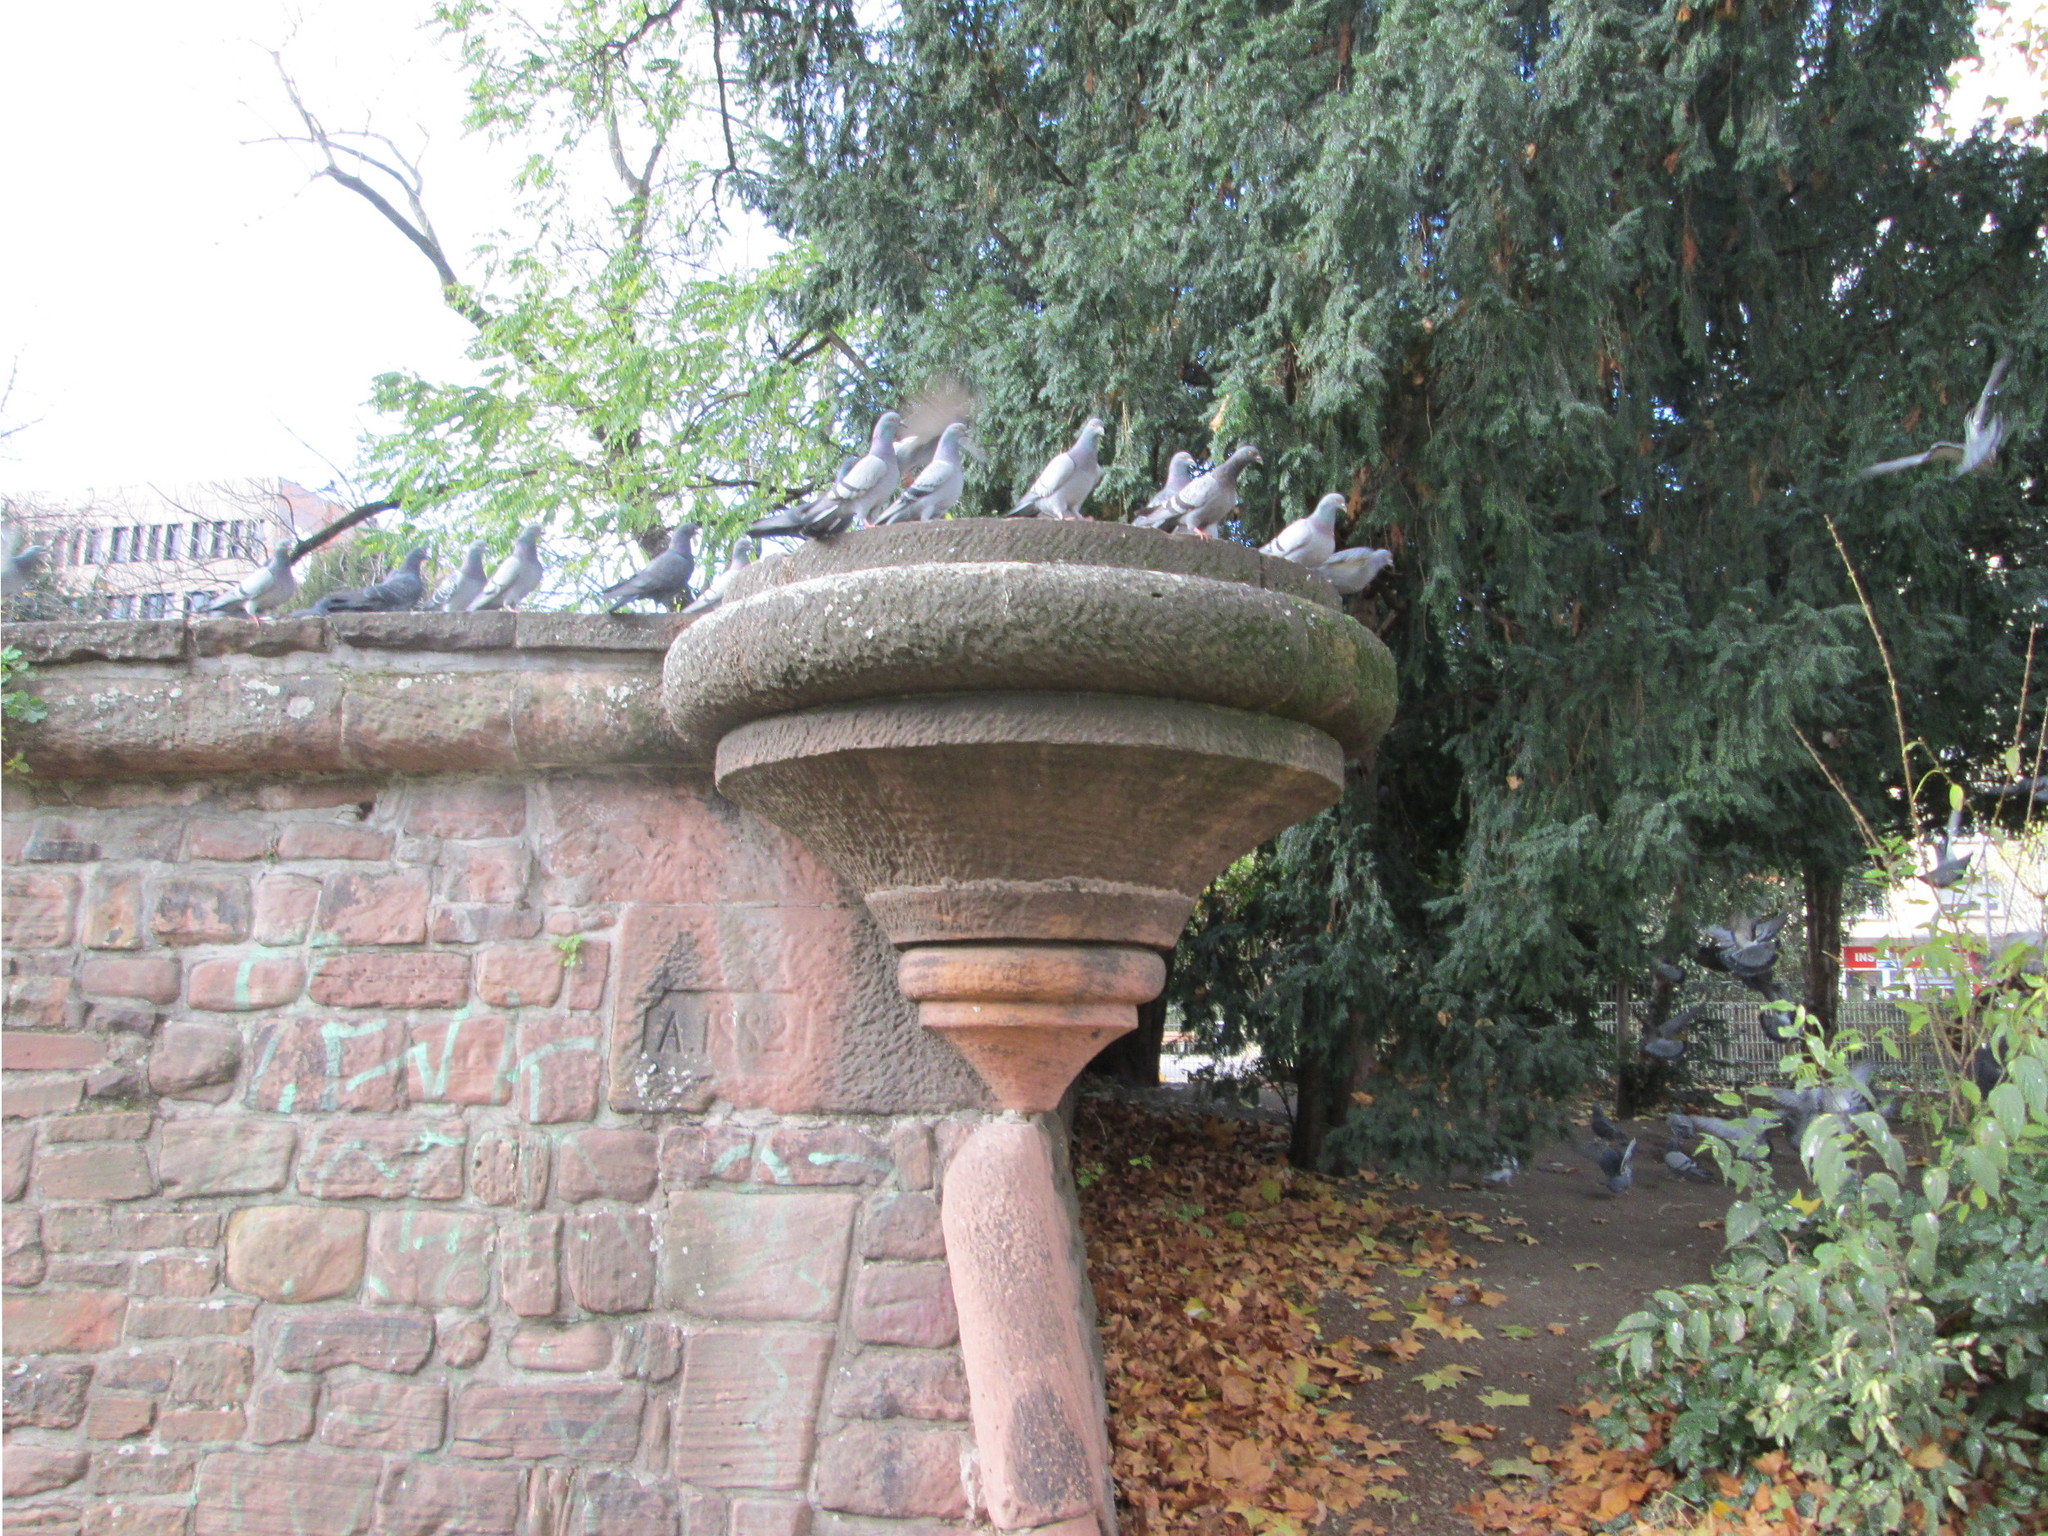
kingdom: Animalia
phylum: Chordata
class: Aves
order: Columbiformes
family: Columbidae
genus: Columba
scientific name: Columba livia
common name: Rock pigeon
